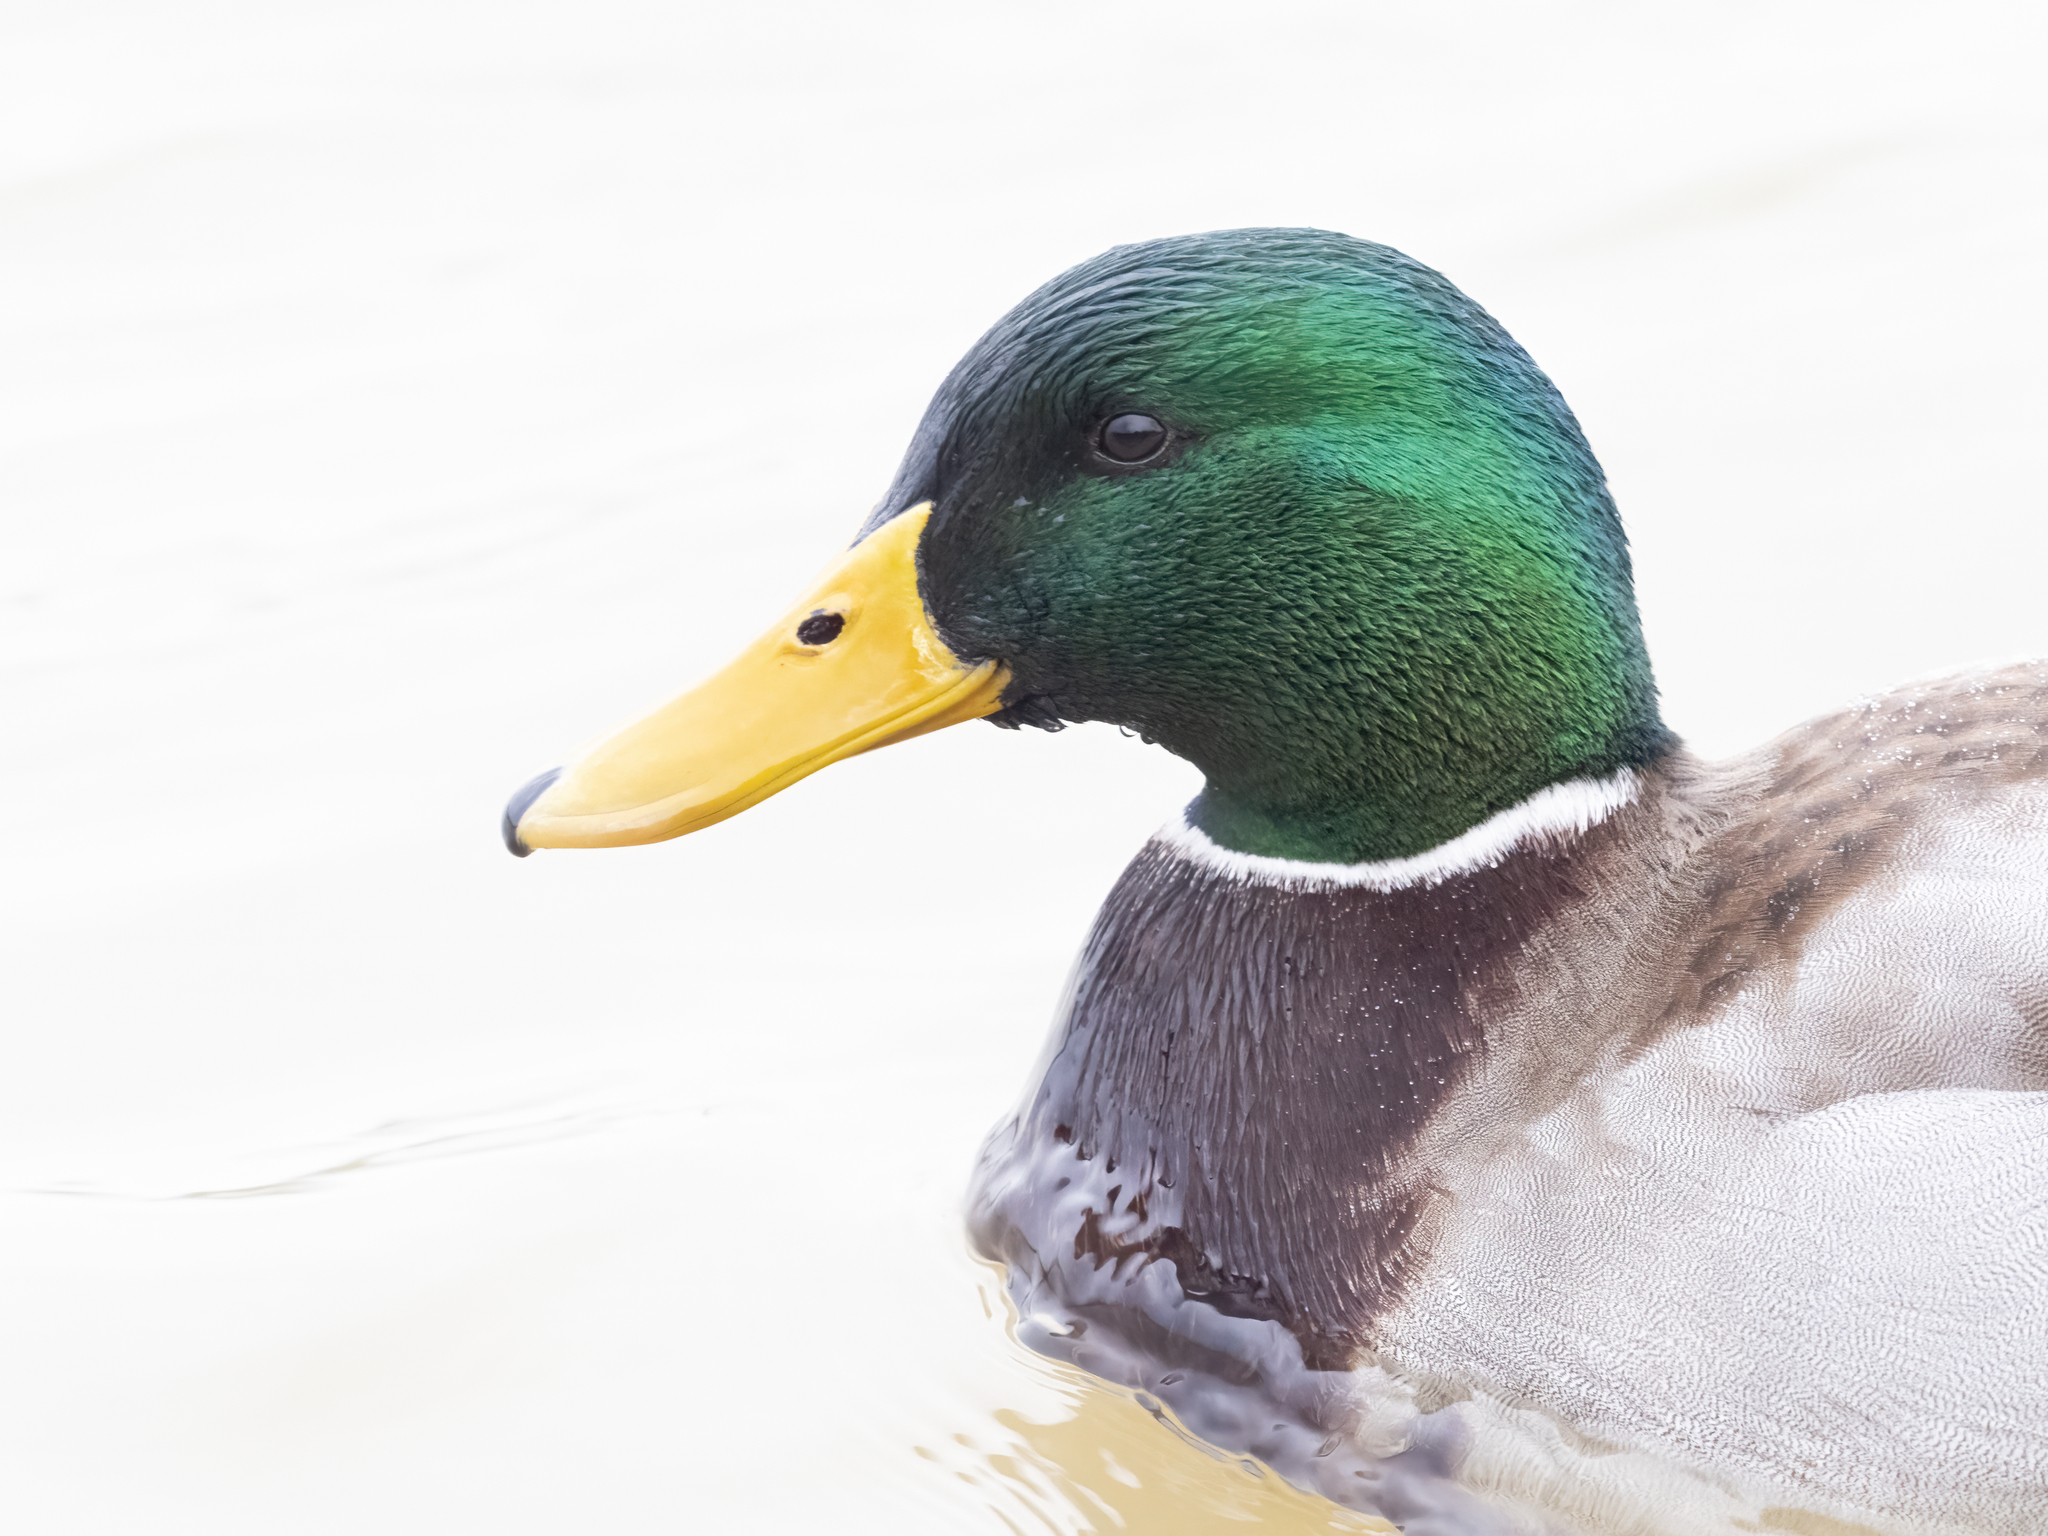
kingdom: Animalia
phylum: Chordata
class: Aves
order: Anseriformes
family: Anatidae
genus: Anas
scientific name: Anas platyrhynchos
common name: Mallard
